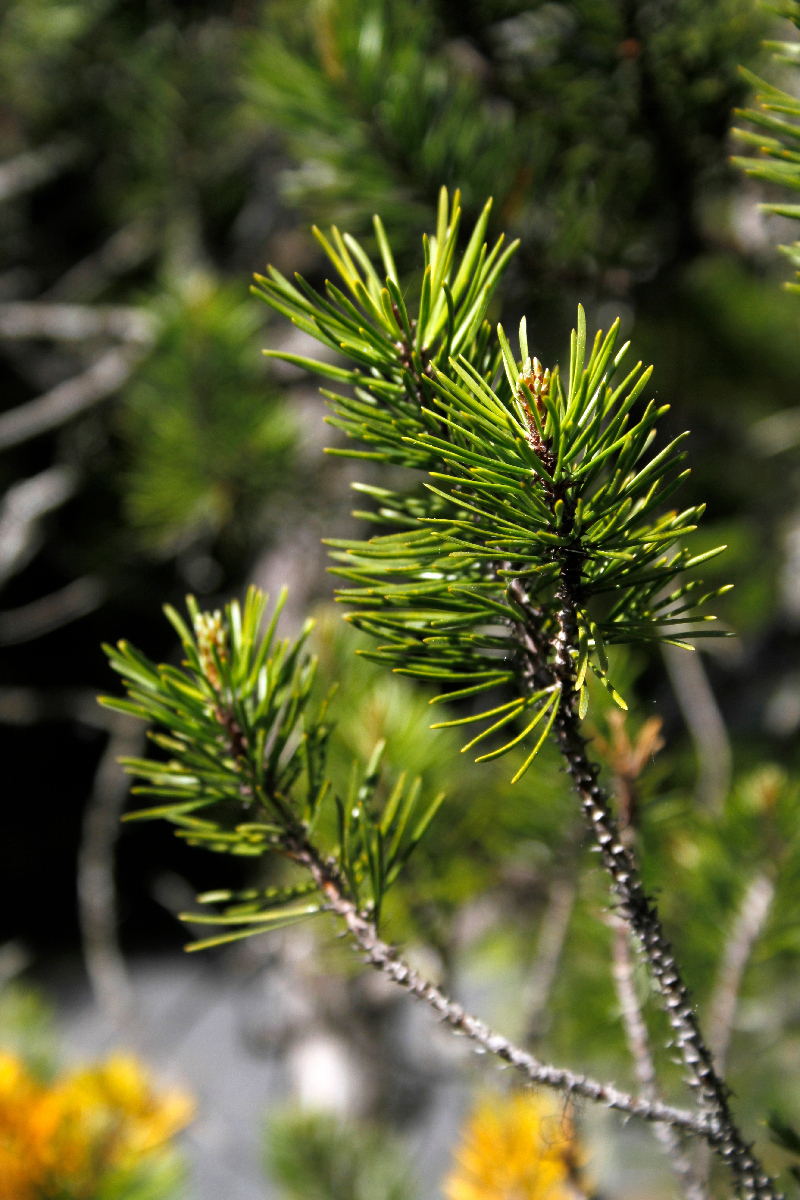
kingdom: Plantae
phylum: Tracheophyta
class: Pinopsida
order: Pinales
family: Pinaceae
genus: Pinus
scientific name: Pinus contorta
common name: Lodgepole pine
